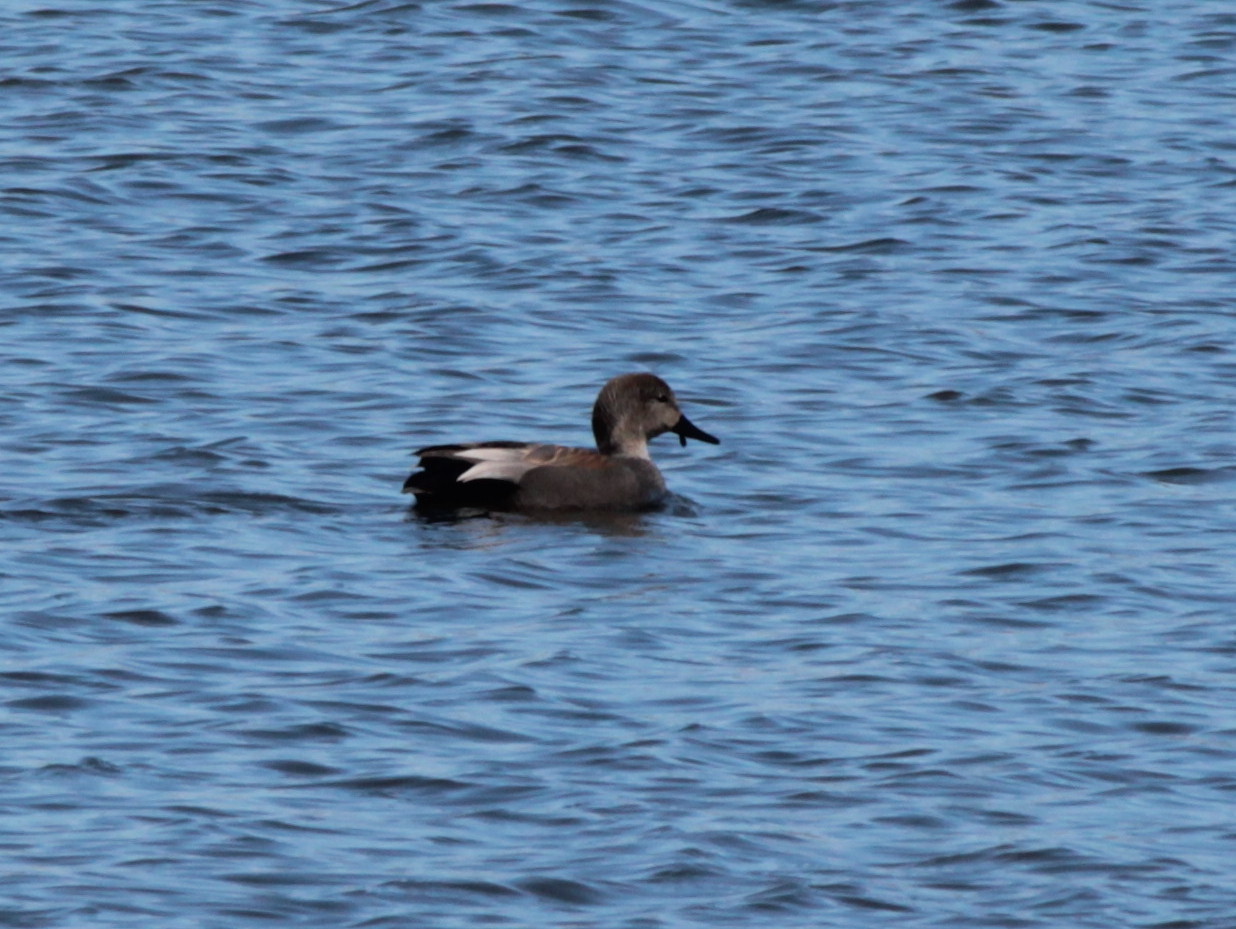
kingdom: Animalia
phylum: Chordata
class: Aves
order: Anseriformes
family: Anatidae
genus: Mareca
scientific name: Mareca strepera
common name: Gadwall
